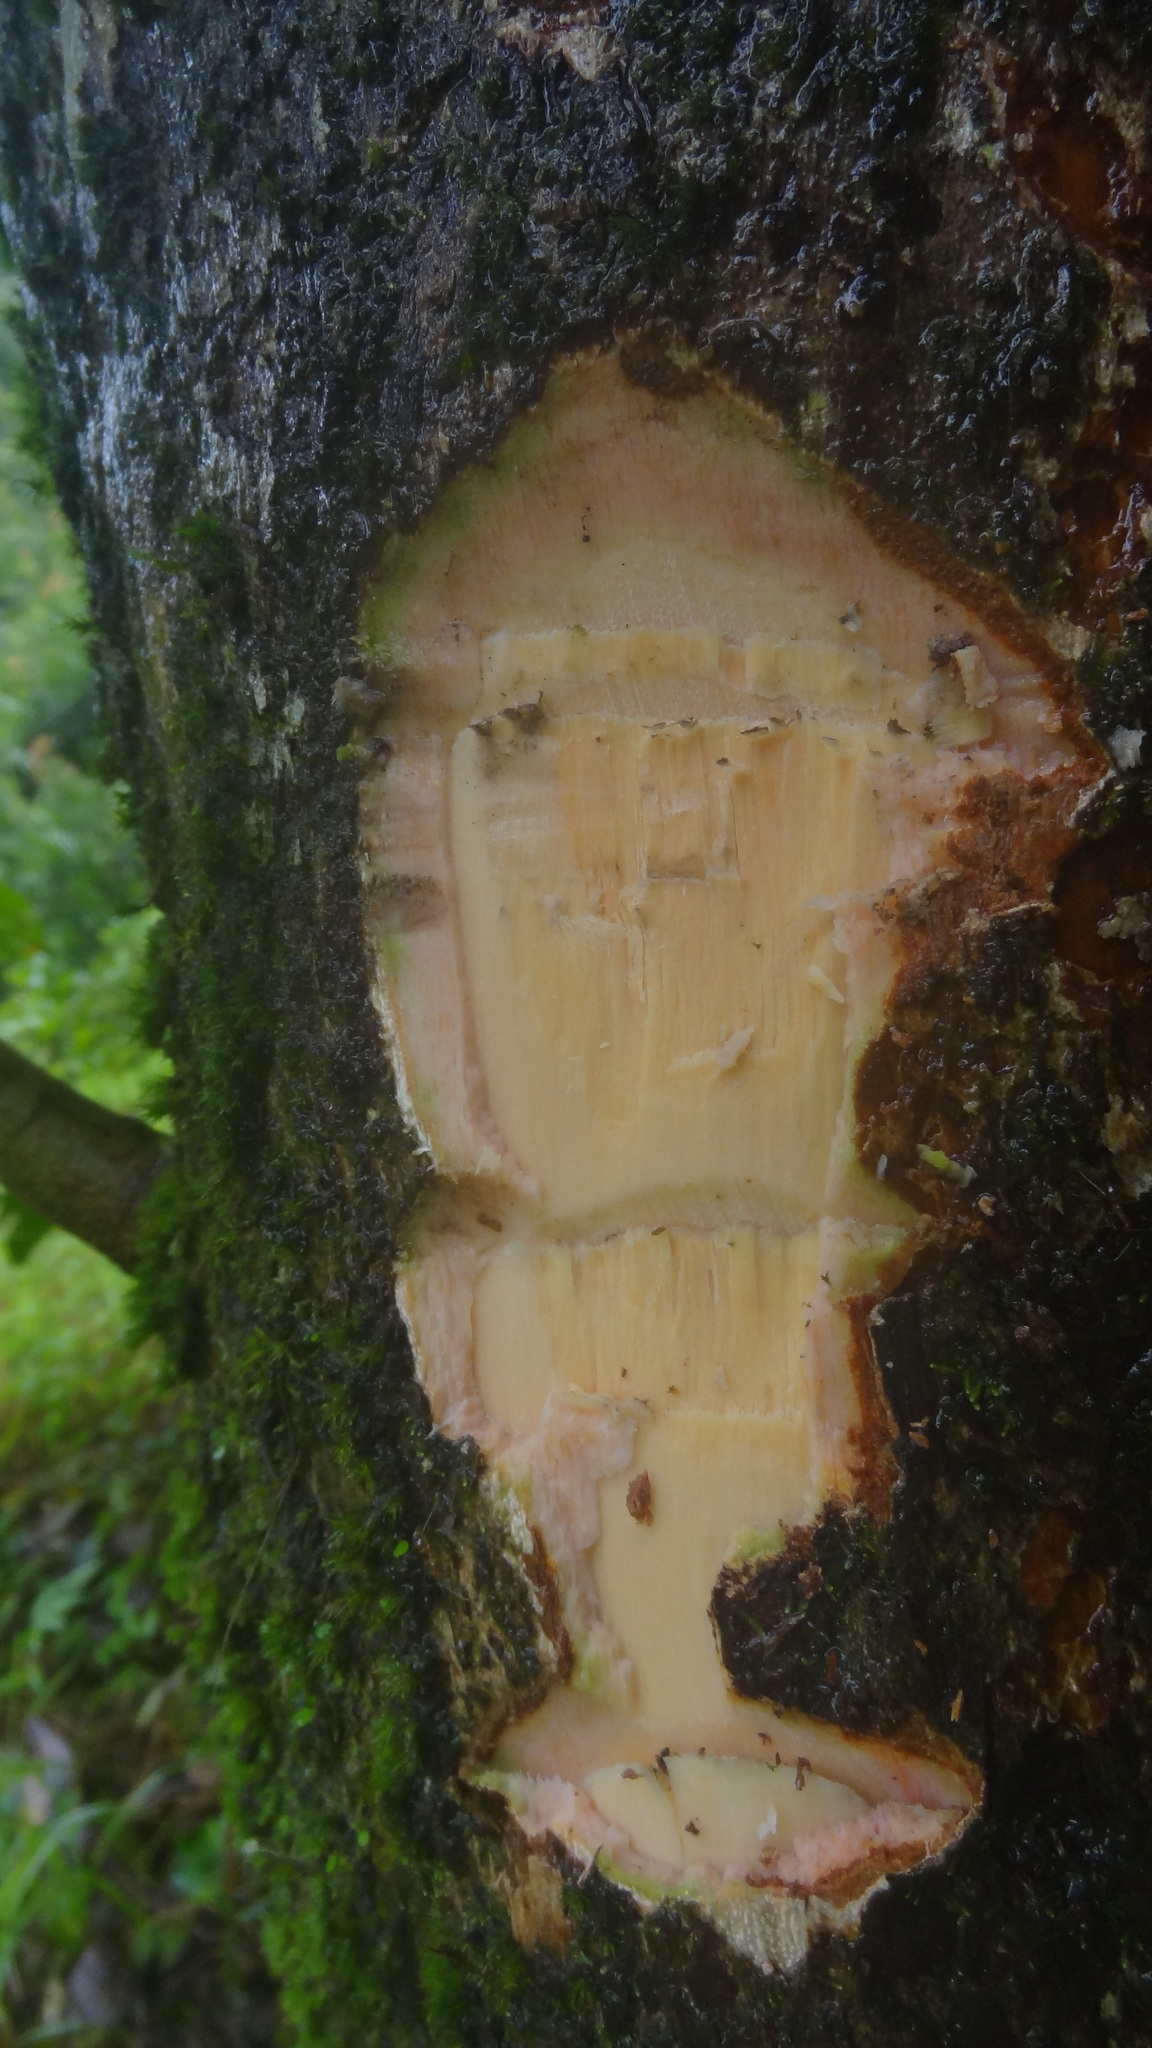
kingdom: Plantae
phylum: Tracheophyta
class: Magnoliopsida
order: Malpighiales
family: Achariaceae
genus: Hydnocarpus
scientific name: Hydnocarpus pentandrus
